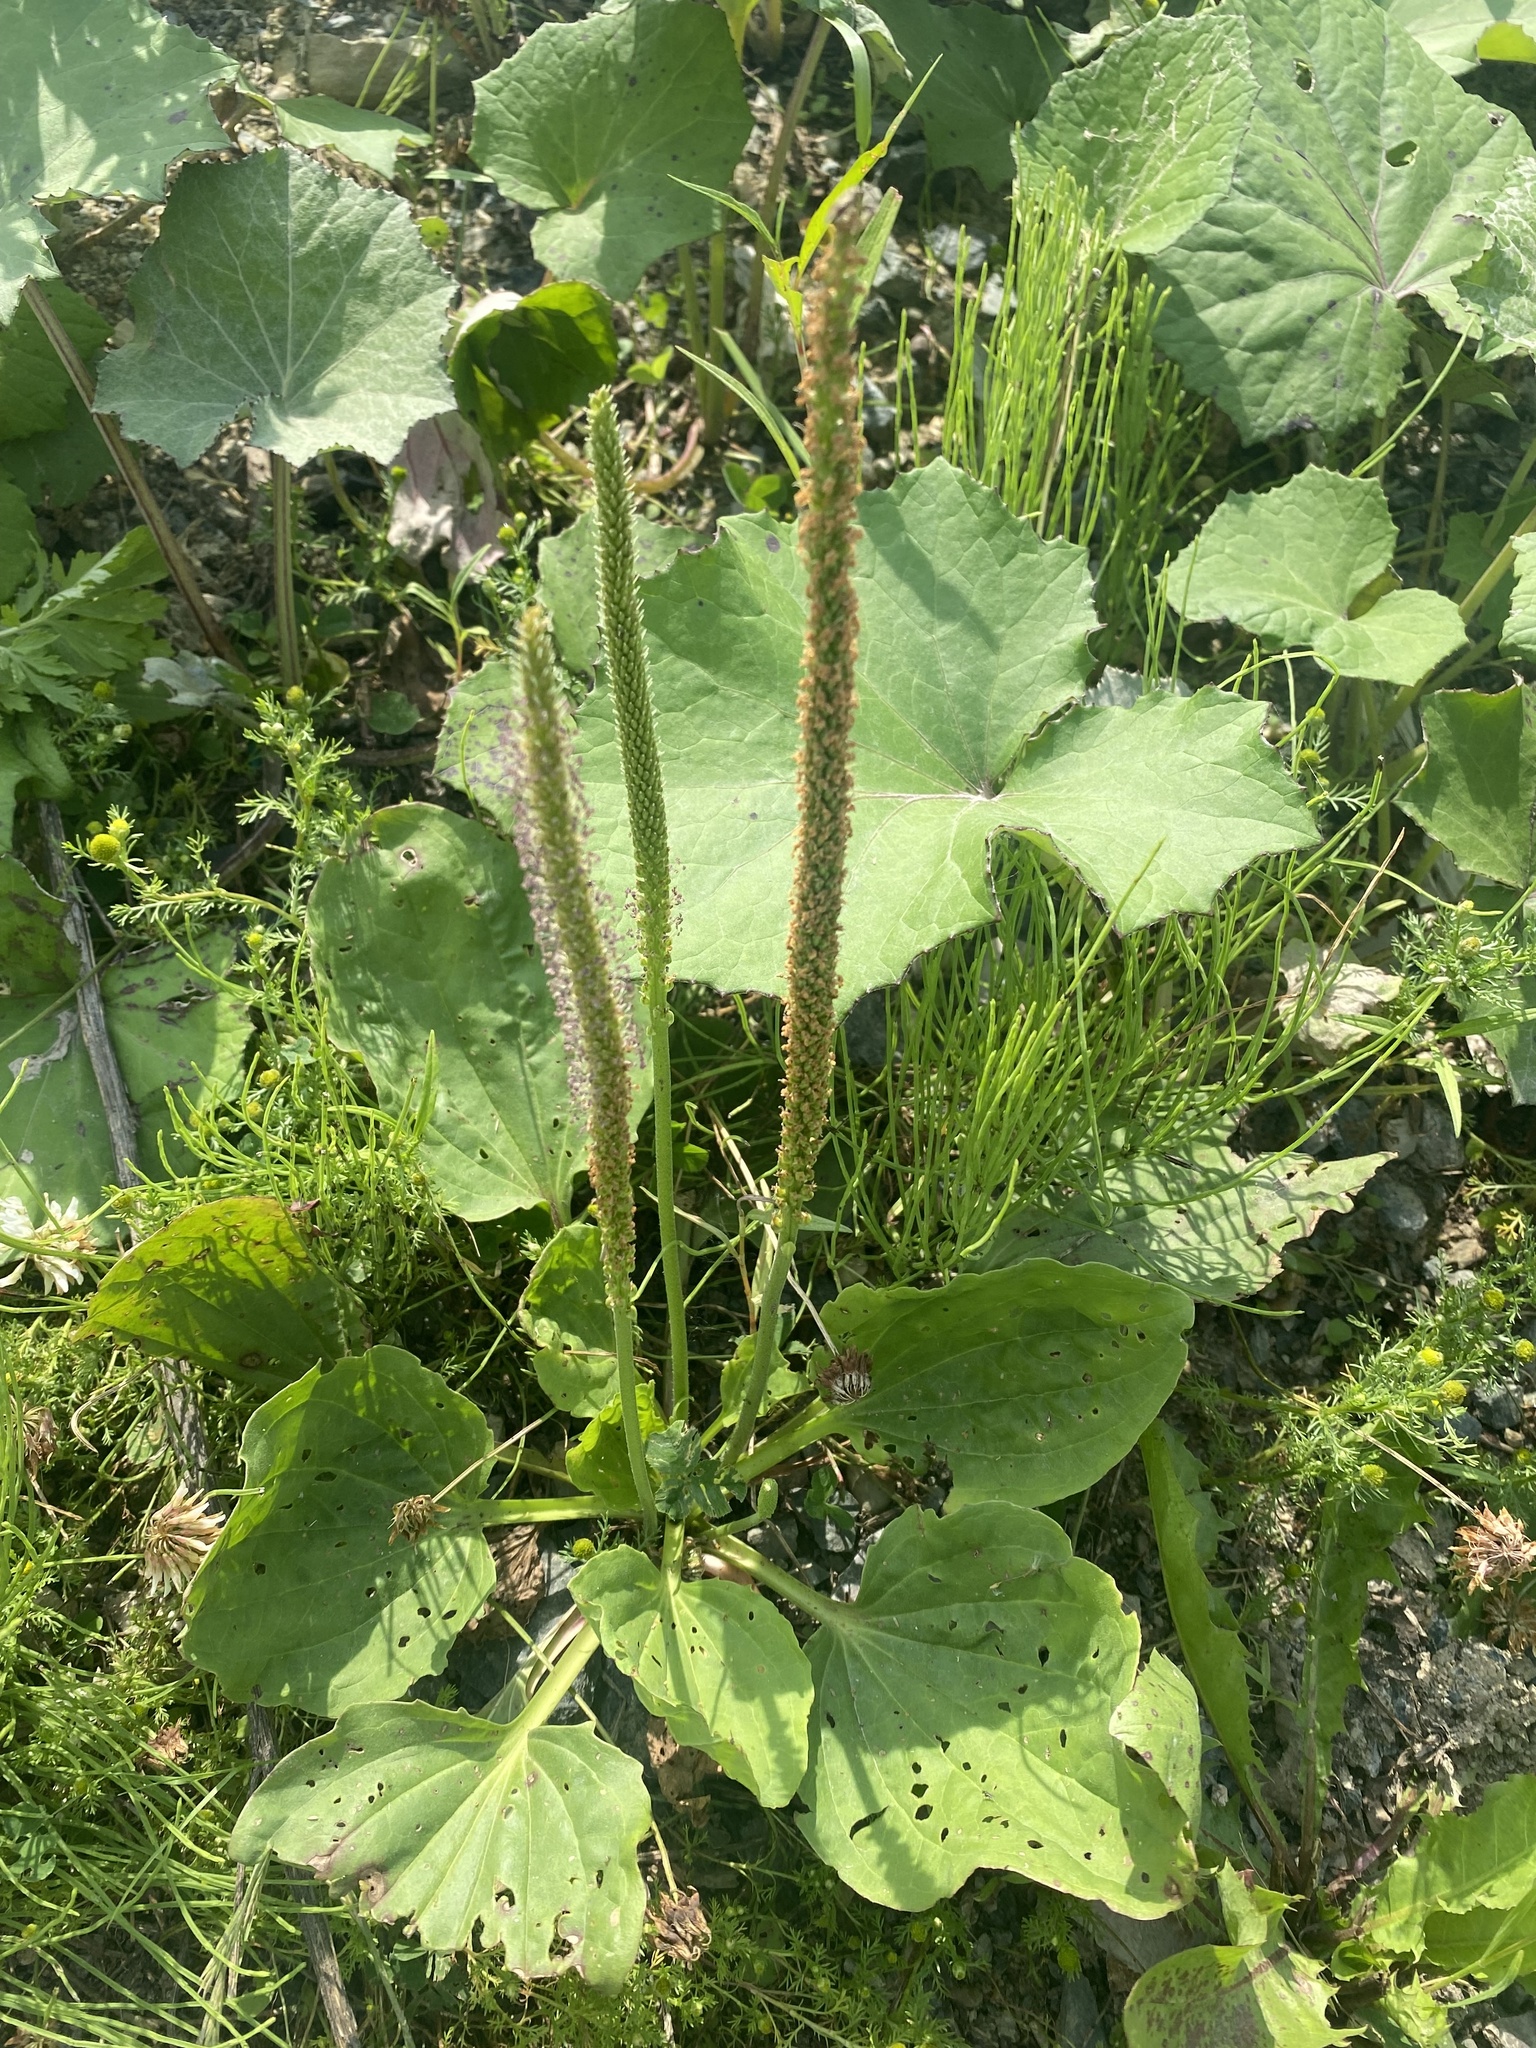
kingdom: Plantae
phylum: Tracheophyta
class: Magnoliopsida
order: Lamiales
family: Plantaginaceae
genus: Plantago
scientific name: Plantago major
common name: Common plantain
